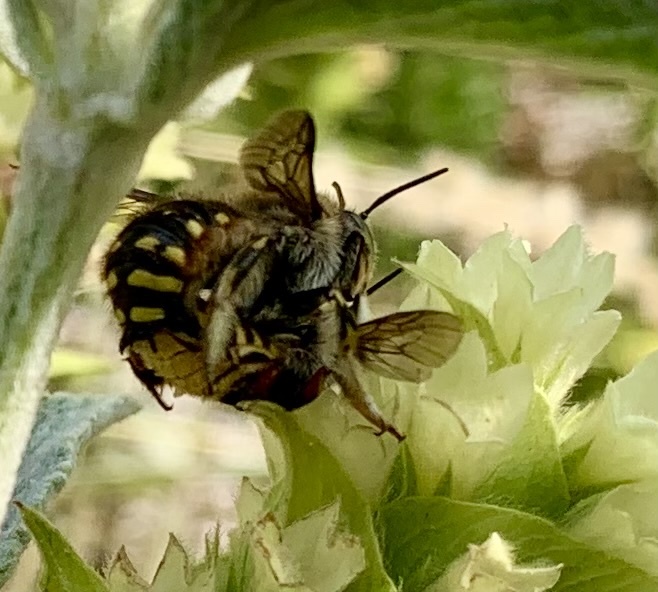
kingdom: Animalia
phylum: Arthropoda
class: Insecta
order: Hymenoptera
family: Megachilidae
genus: Anthidium
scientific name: Anthidium manicatum
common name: Wool carder bee
